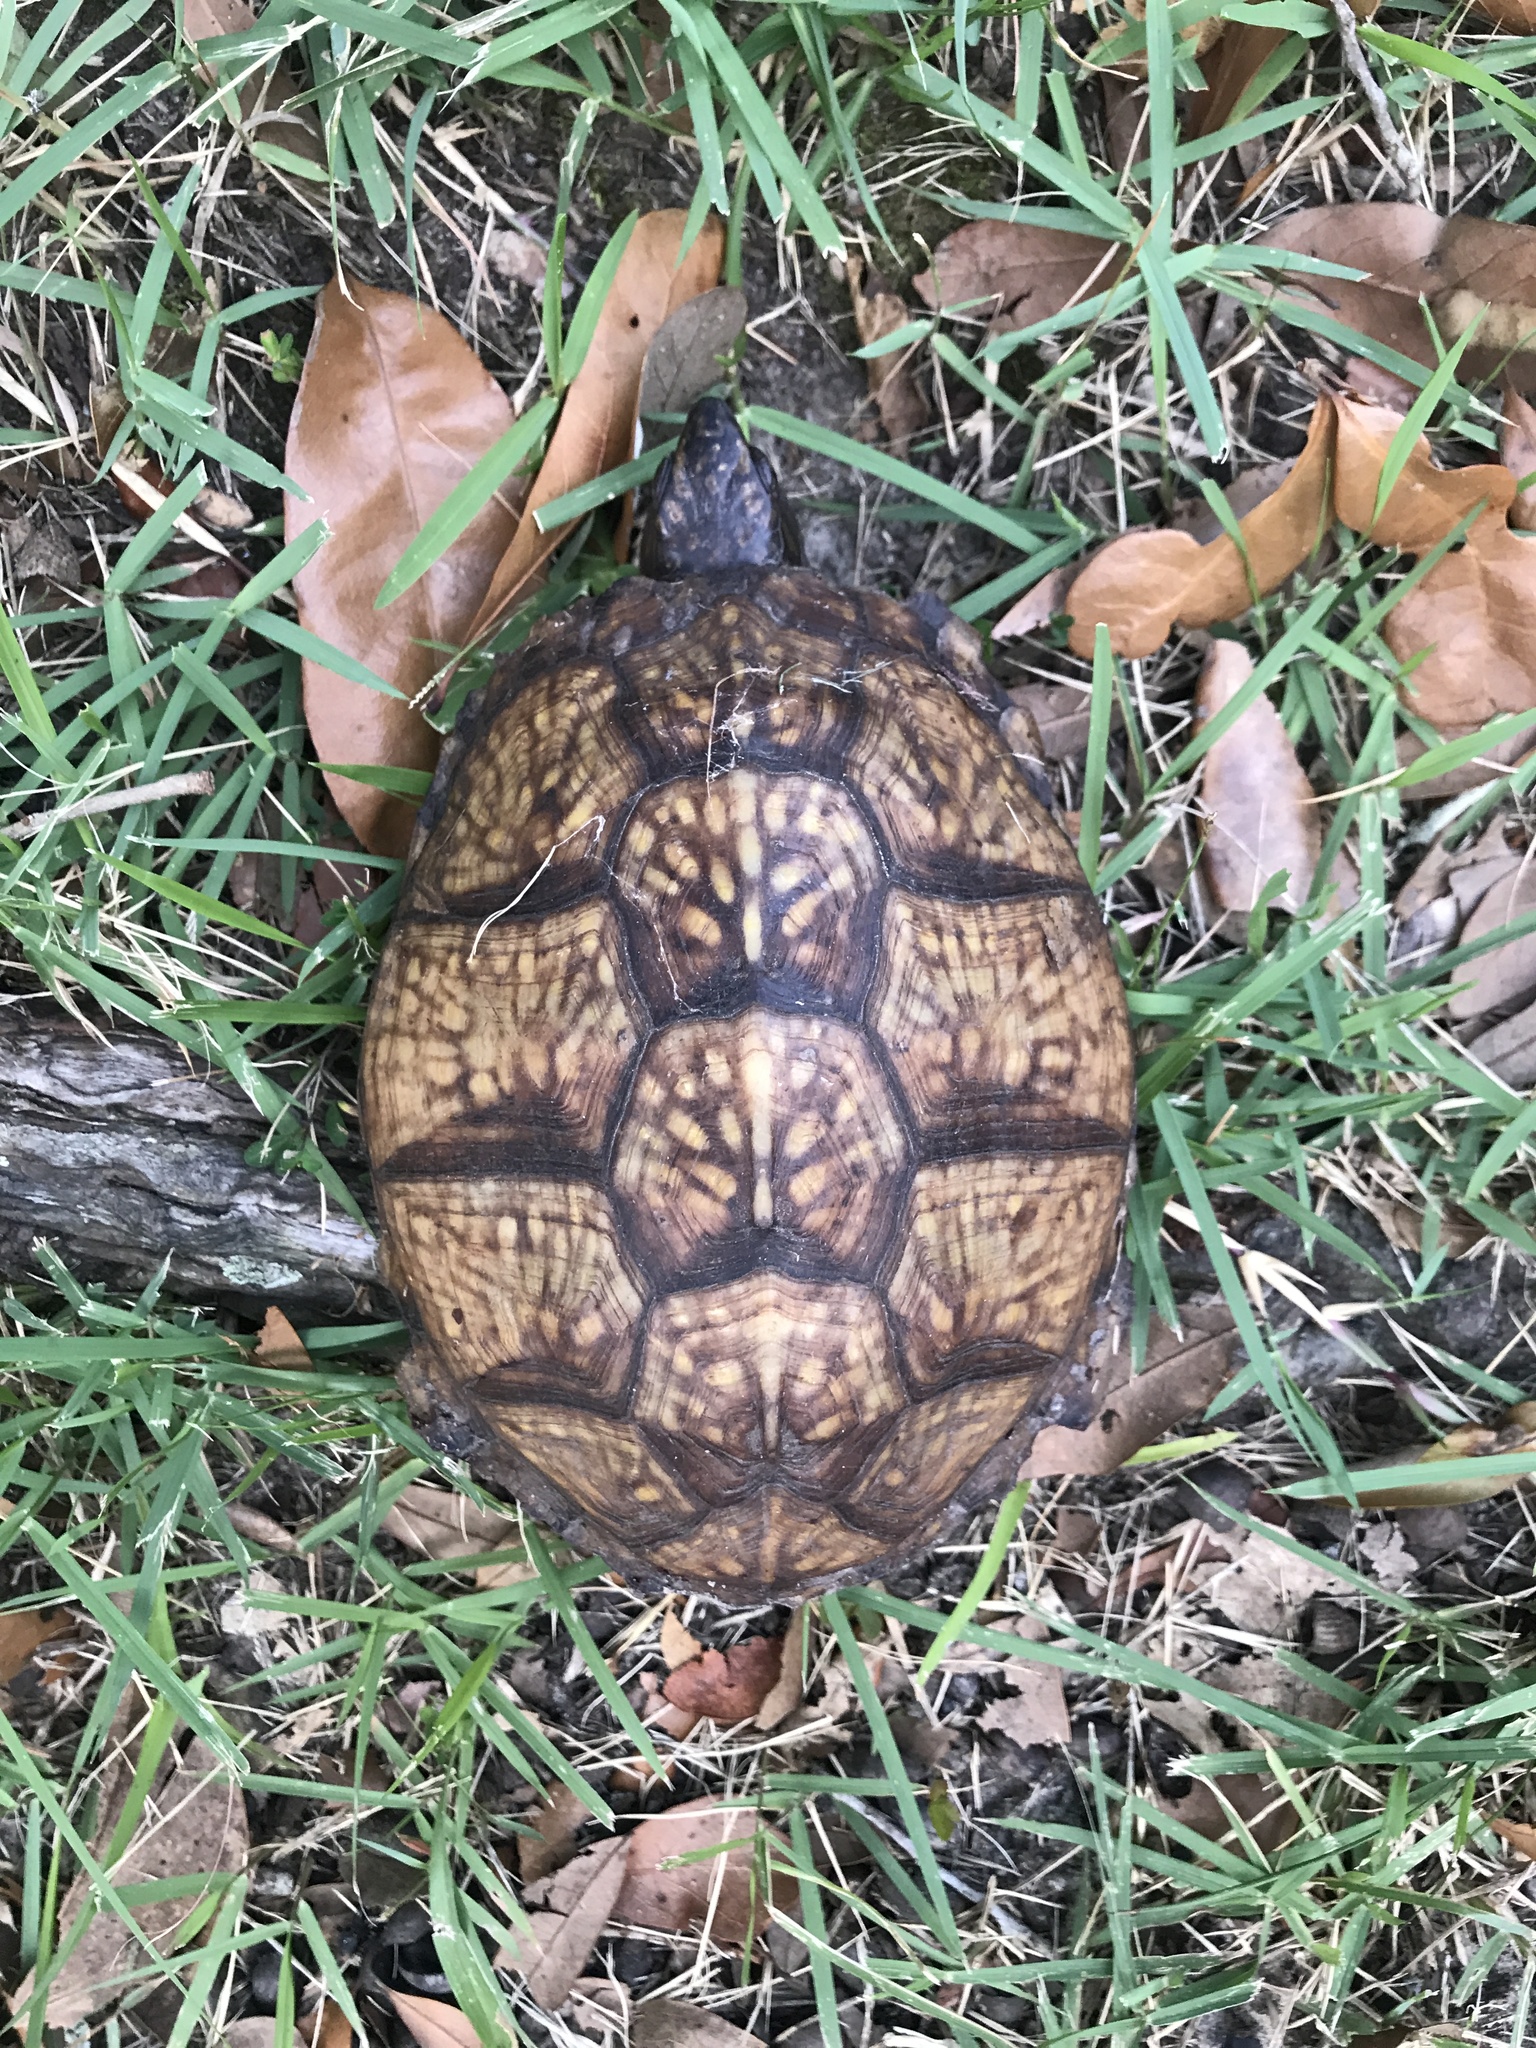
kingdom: Animalia
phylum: Chordata
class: Testudines
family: Emydidae
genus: Terrapene
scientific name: Terrapene carolina
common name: Common box turtle
